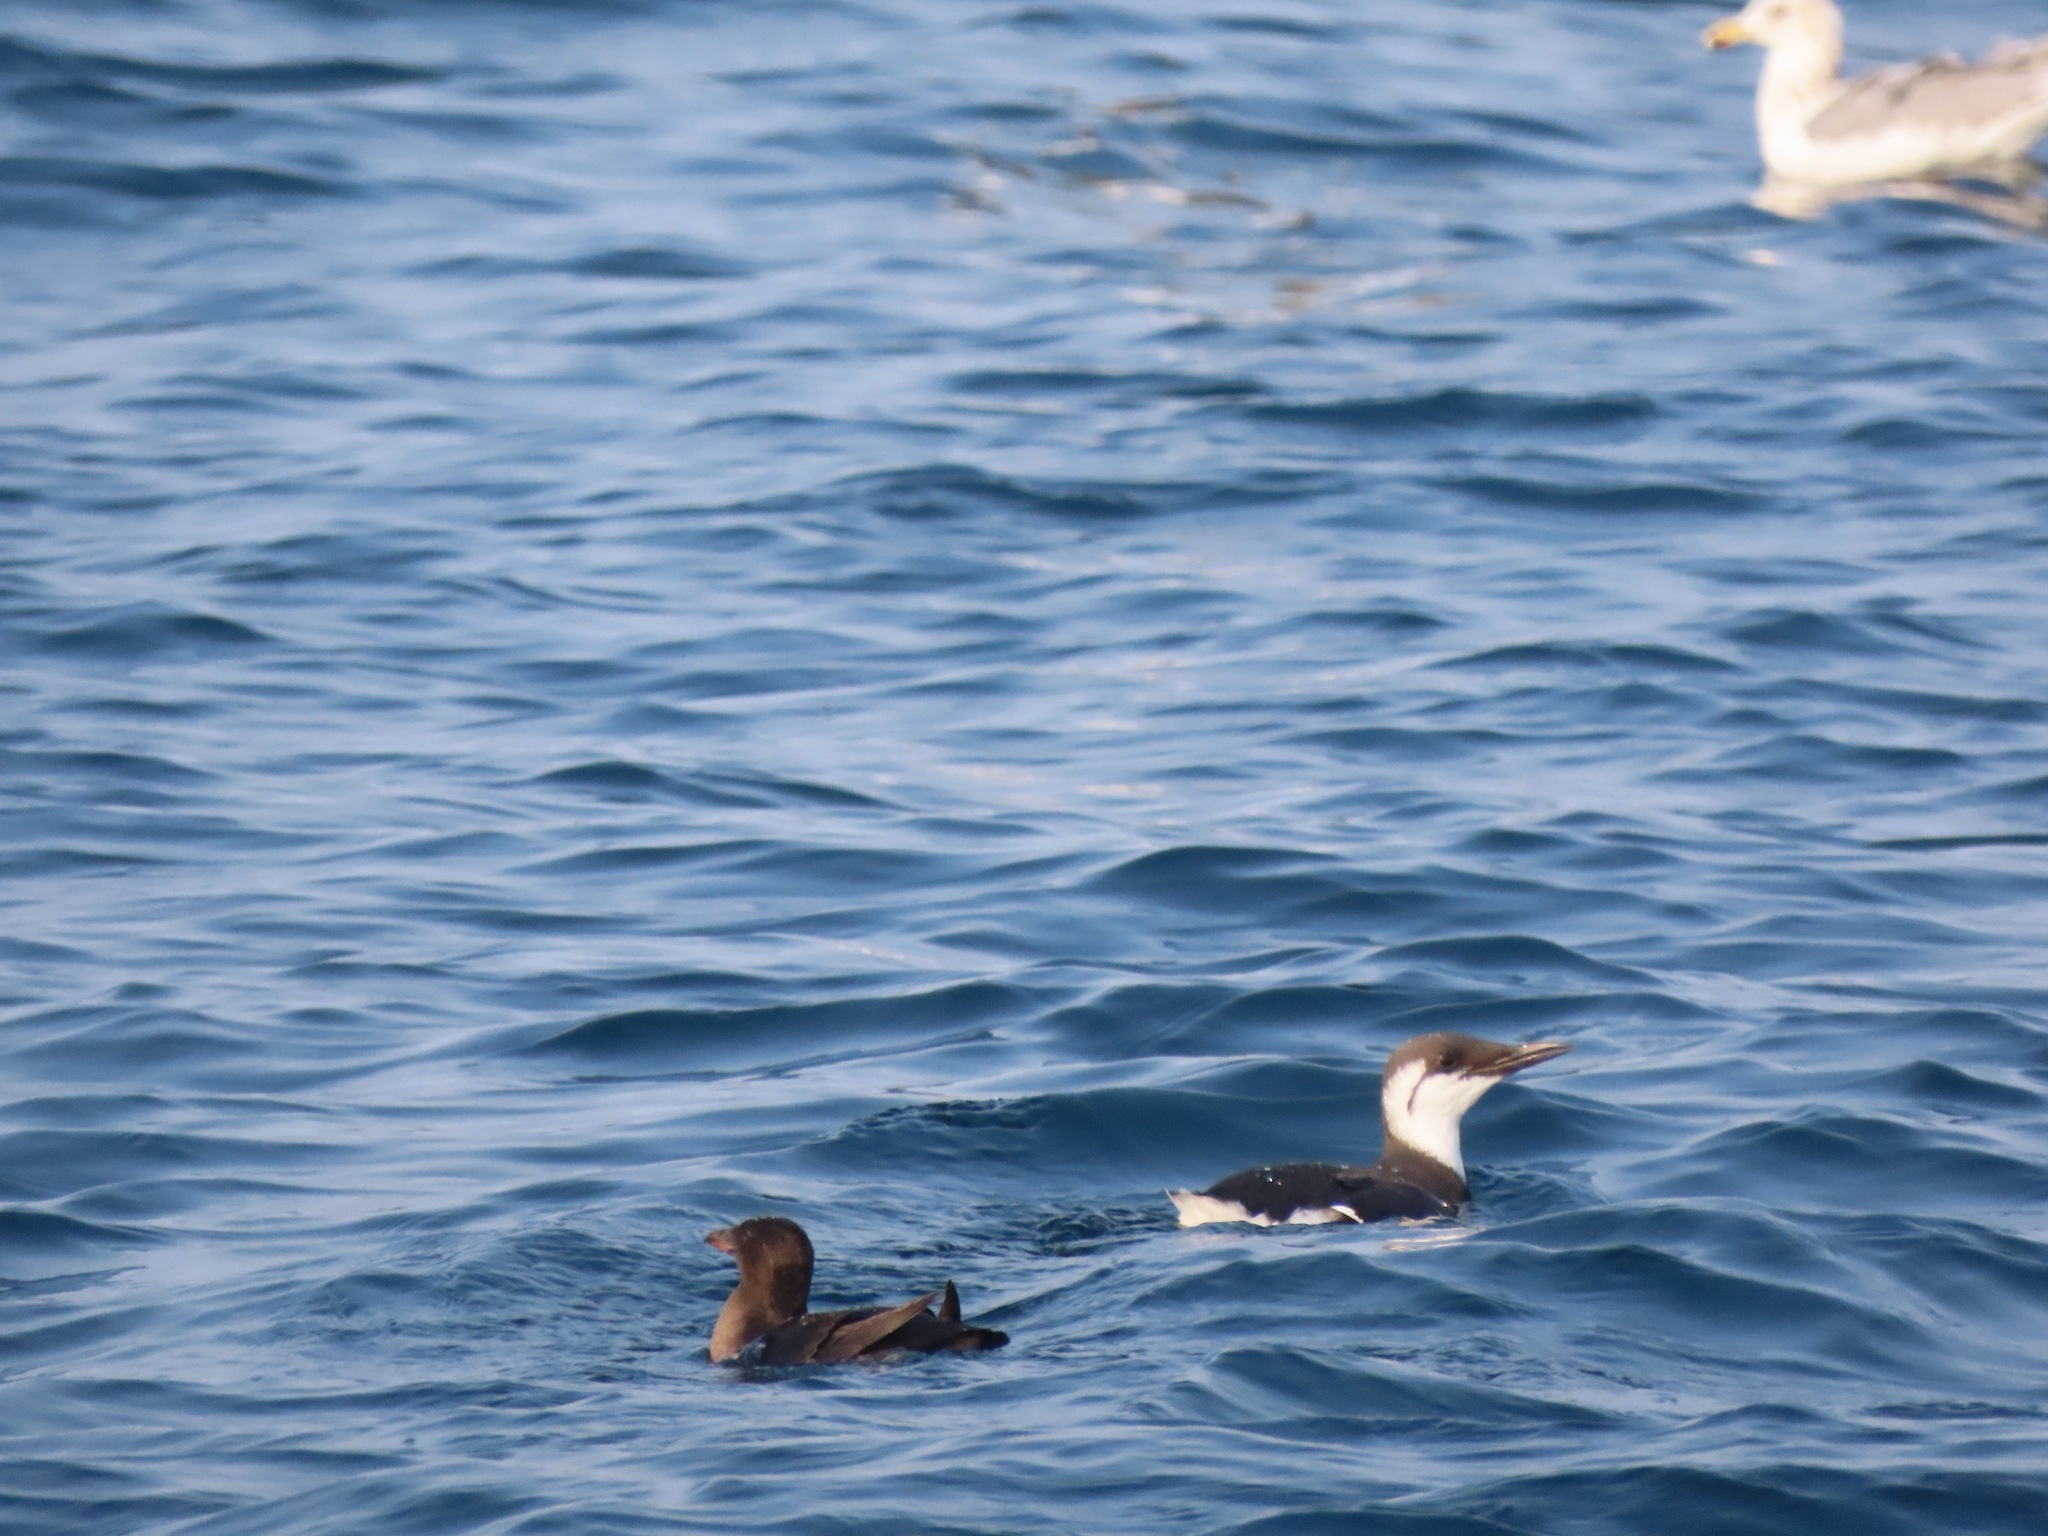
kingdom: Animalia
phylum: Chordata
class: Aves
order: Charadriiformes
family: Alcidae
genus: Uria
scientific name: Uria aalge
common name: Common murre
